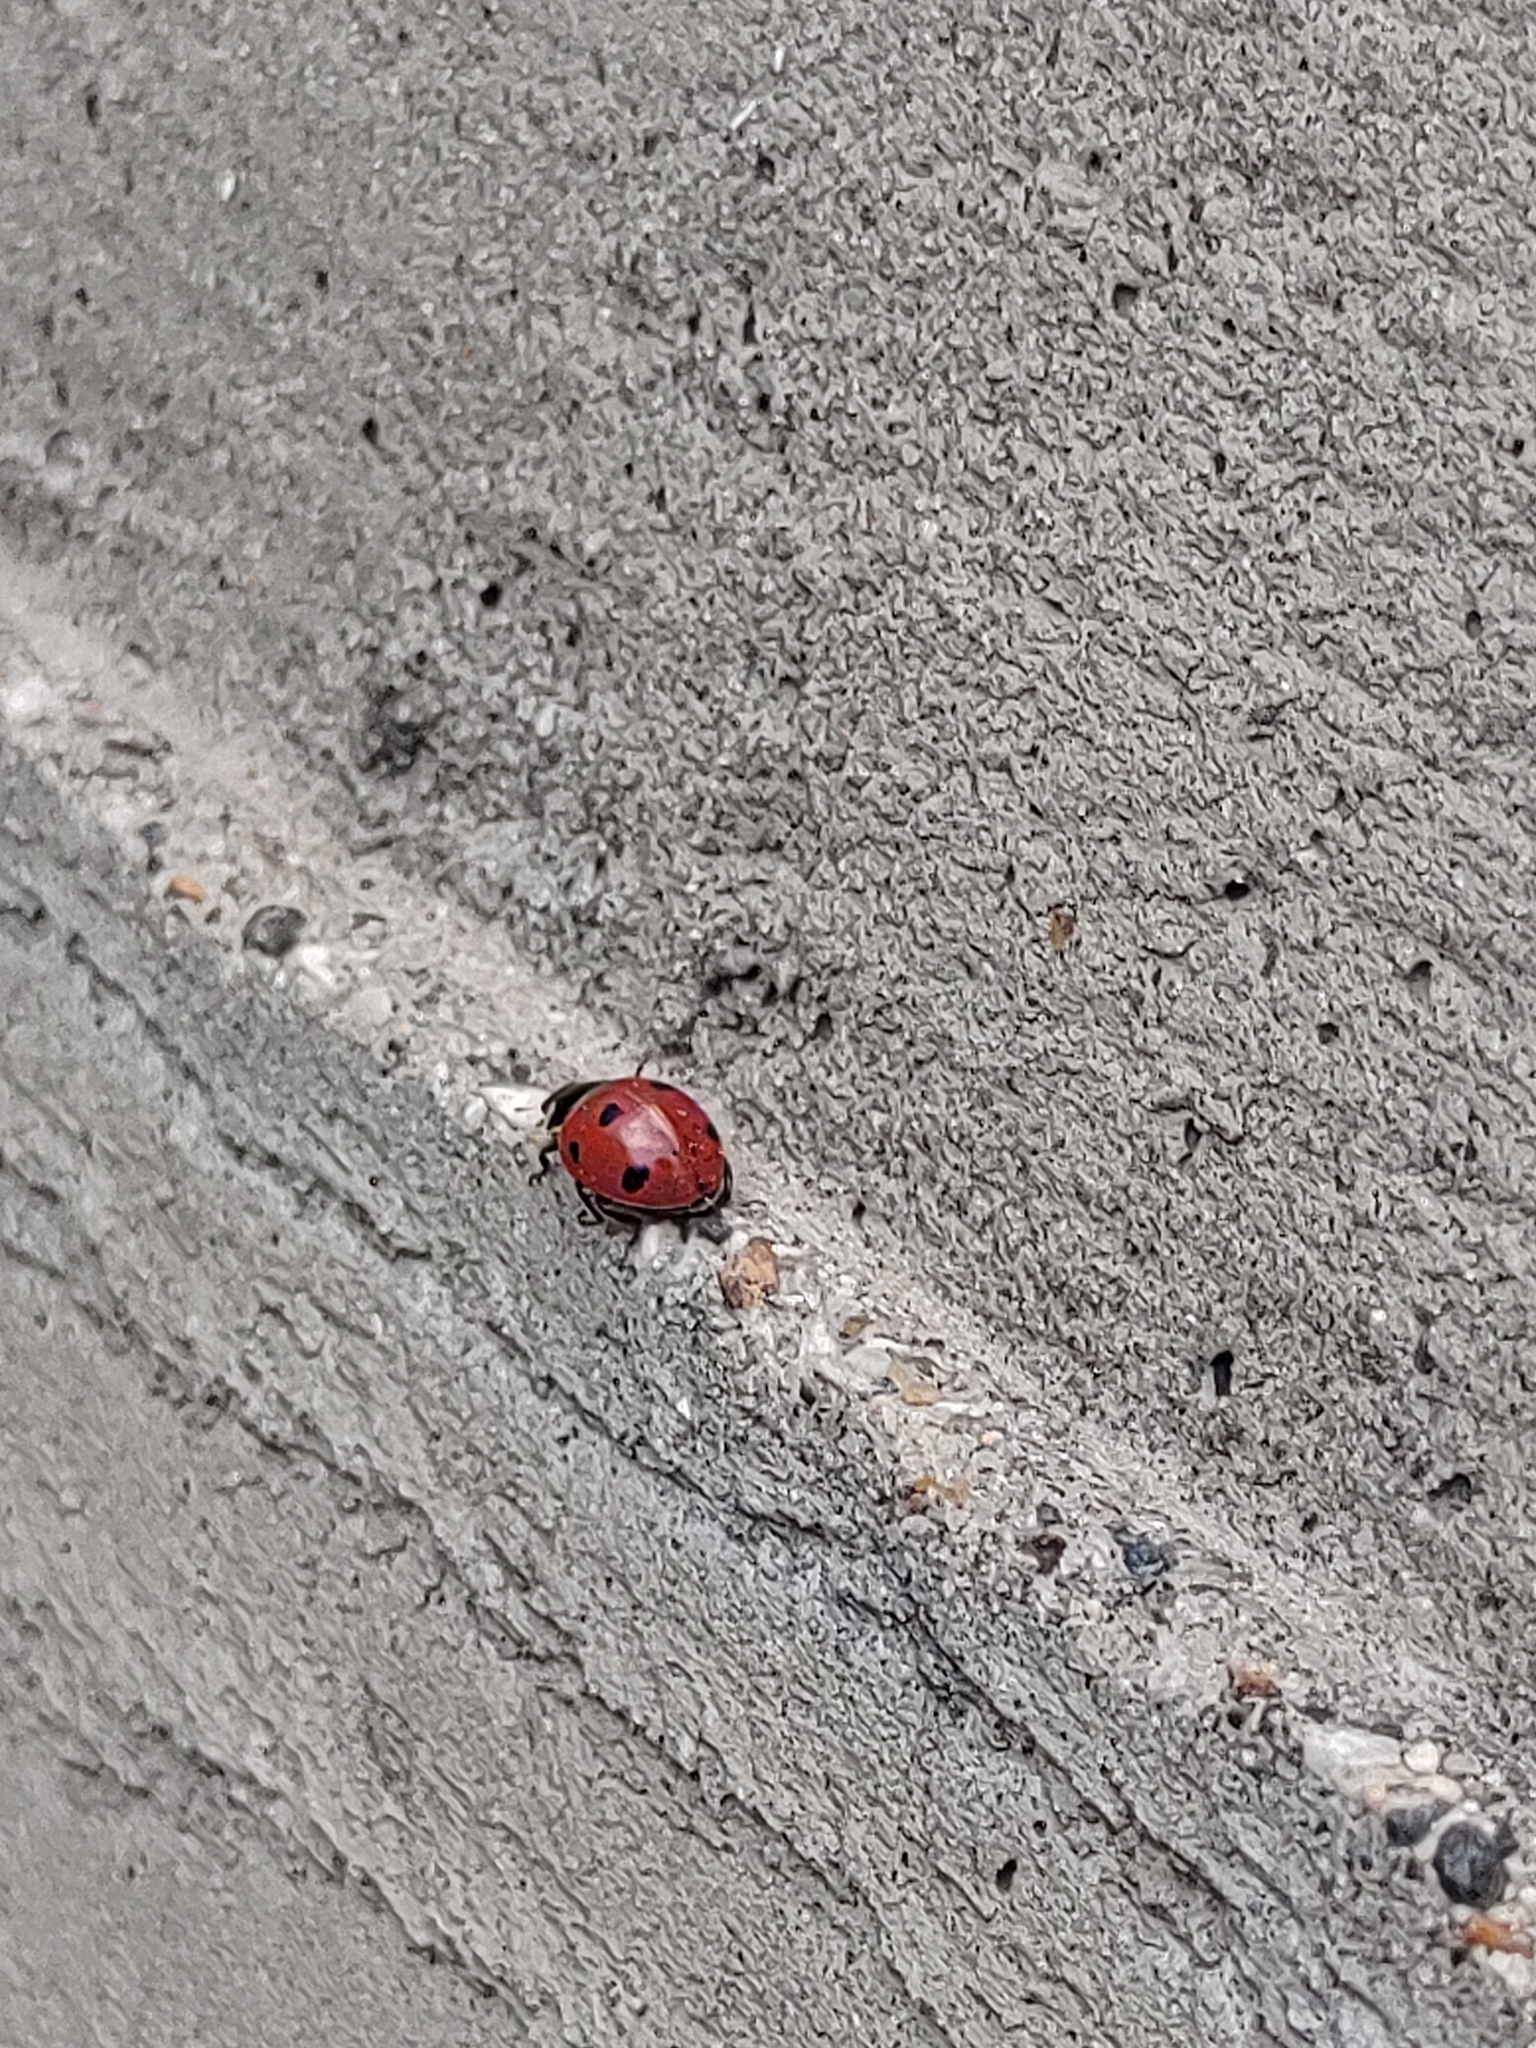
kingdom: Animalia
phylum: Arthropoda
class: Insecta
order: Coleoptera
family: Coccinellidae
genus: Coccinella
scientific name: Coccinella septempunctata
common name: Sevenspotted lady beetle
